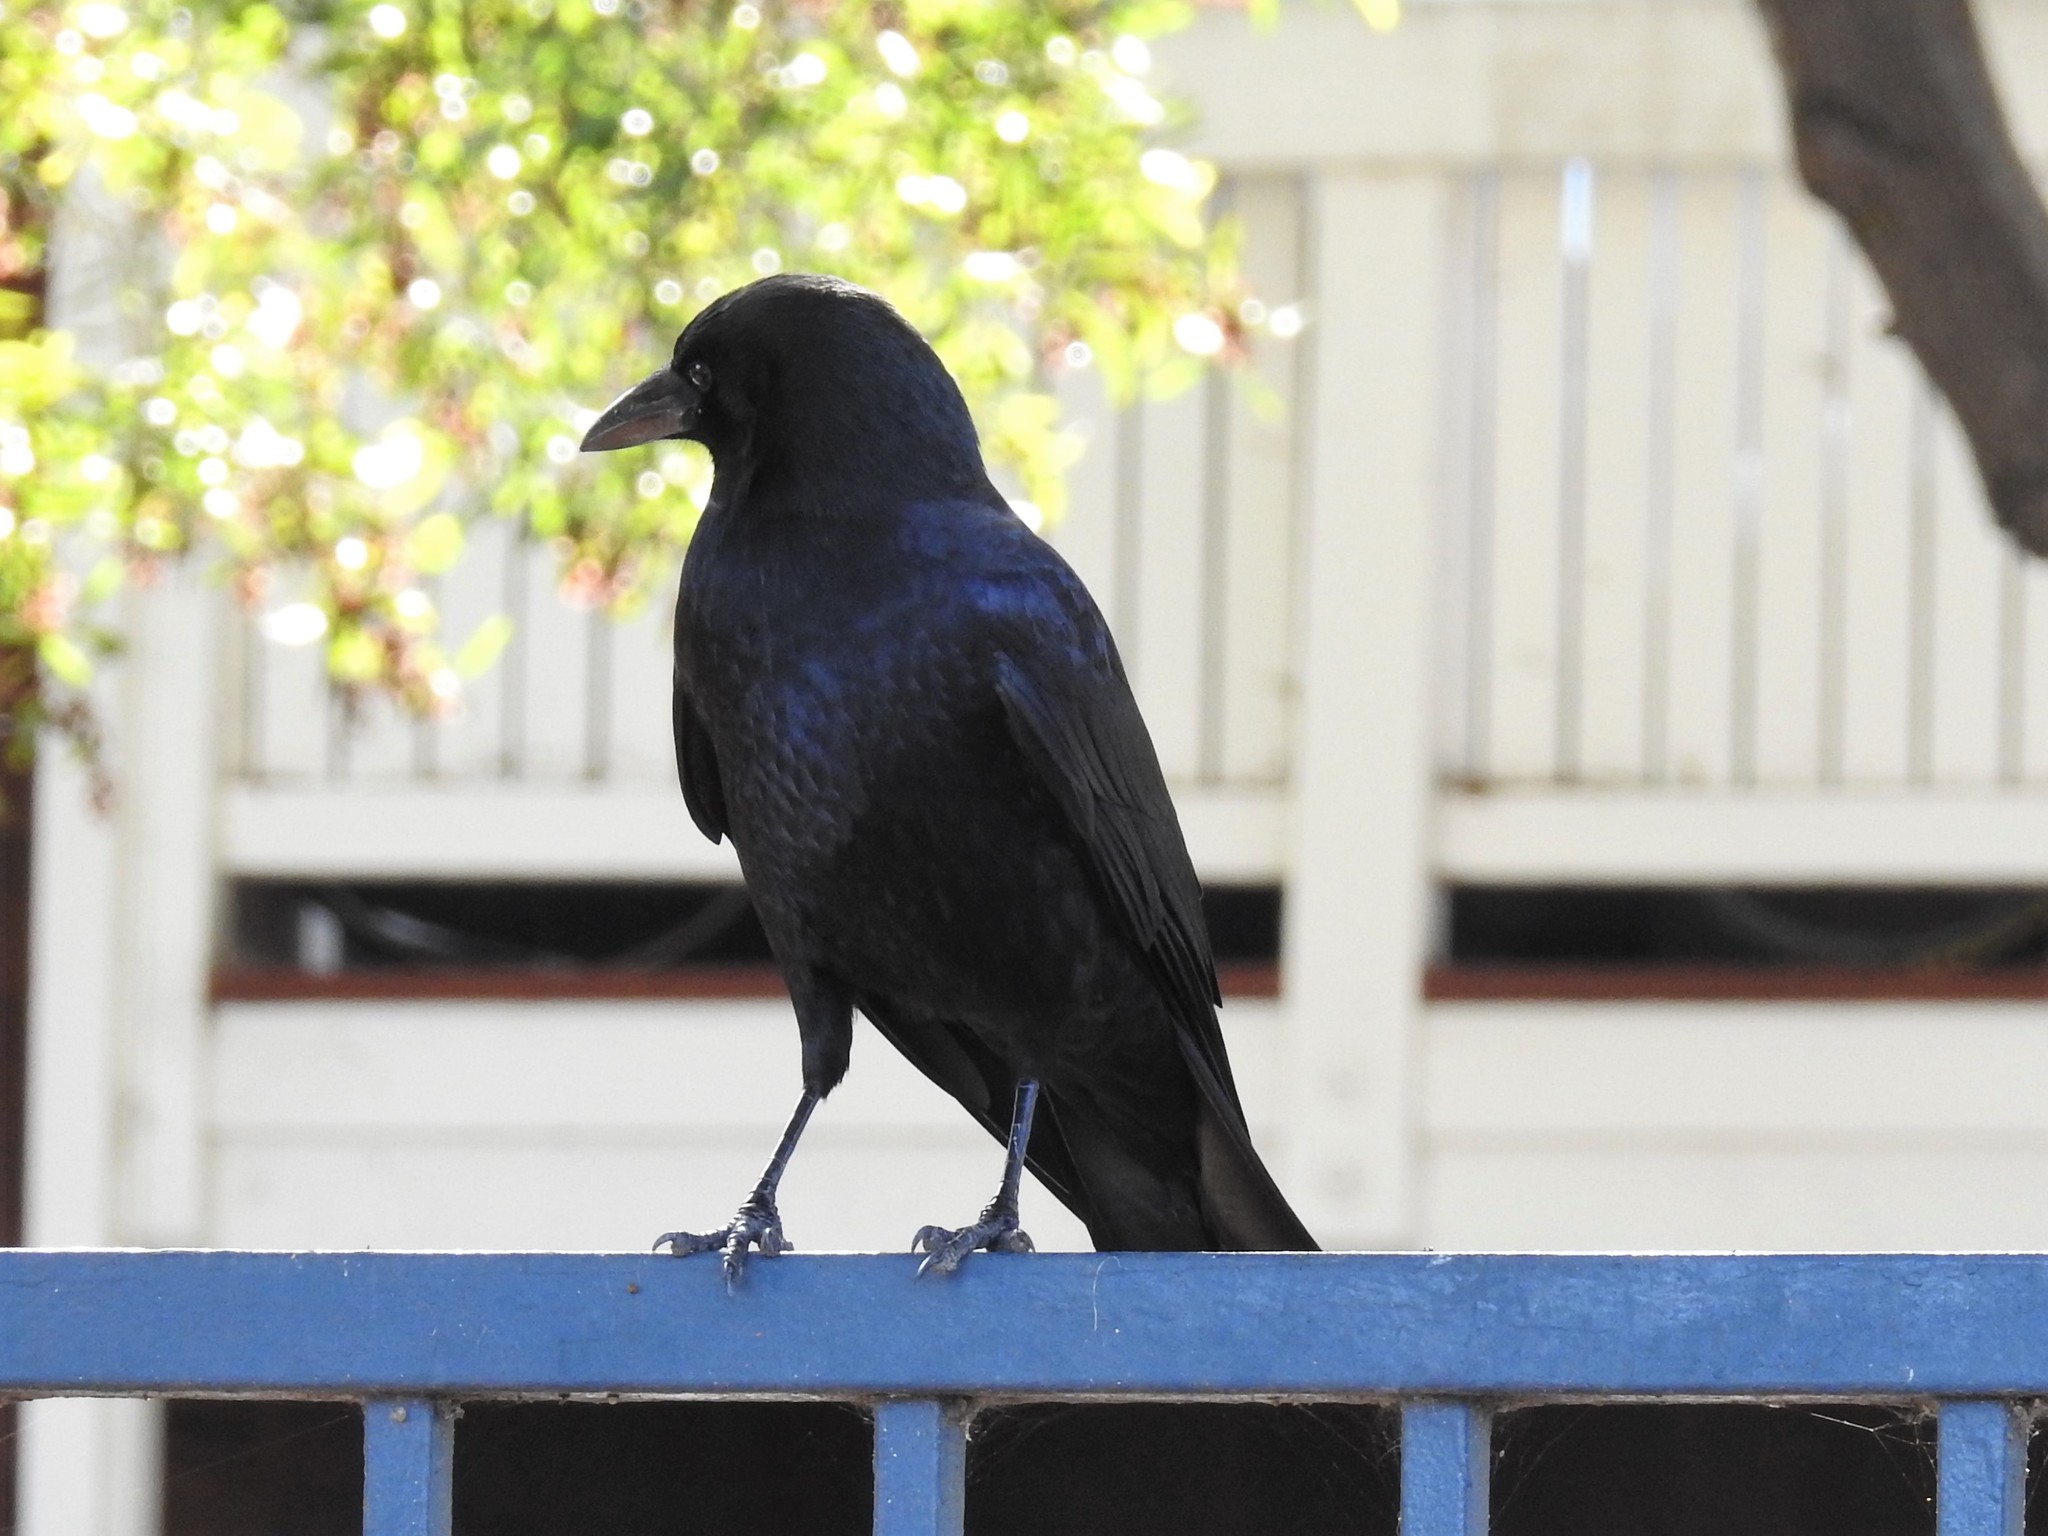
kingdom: Animalia
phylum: Chordata
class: Aves
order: Passeriformes
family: Corvidae
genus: Corvus
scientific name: Corvus brachyrhynchos
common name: American crow
